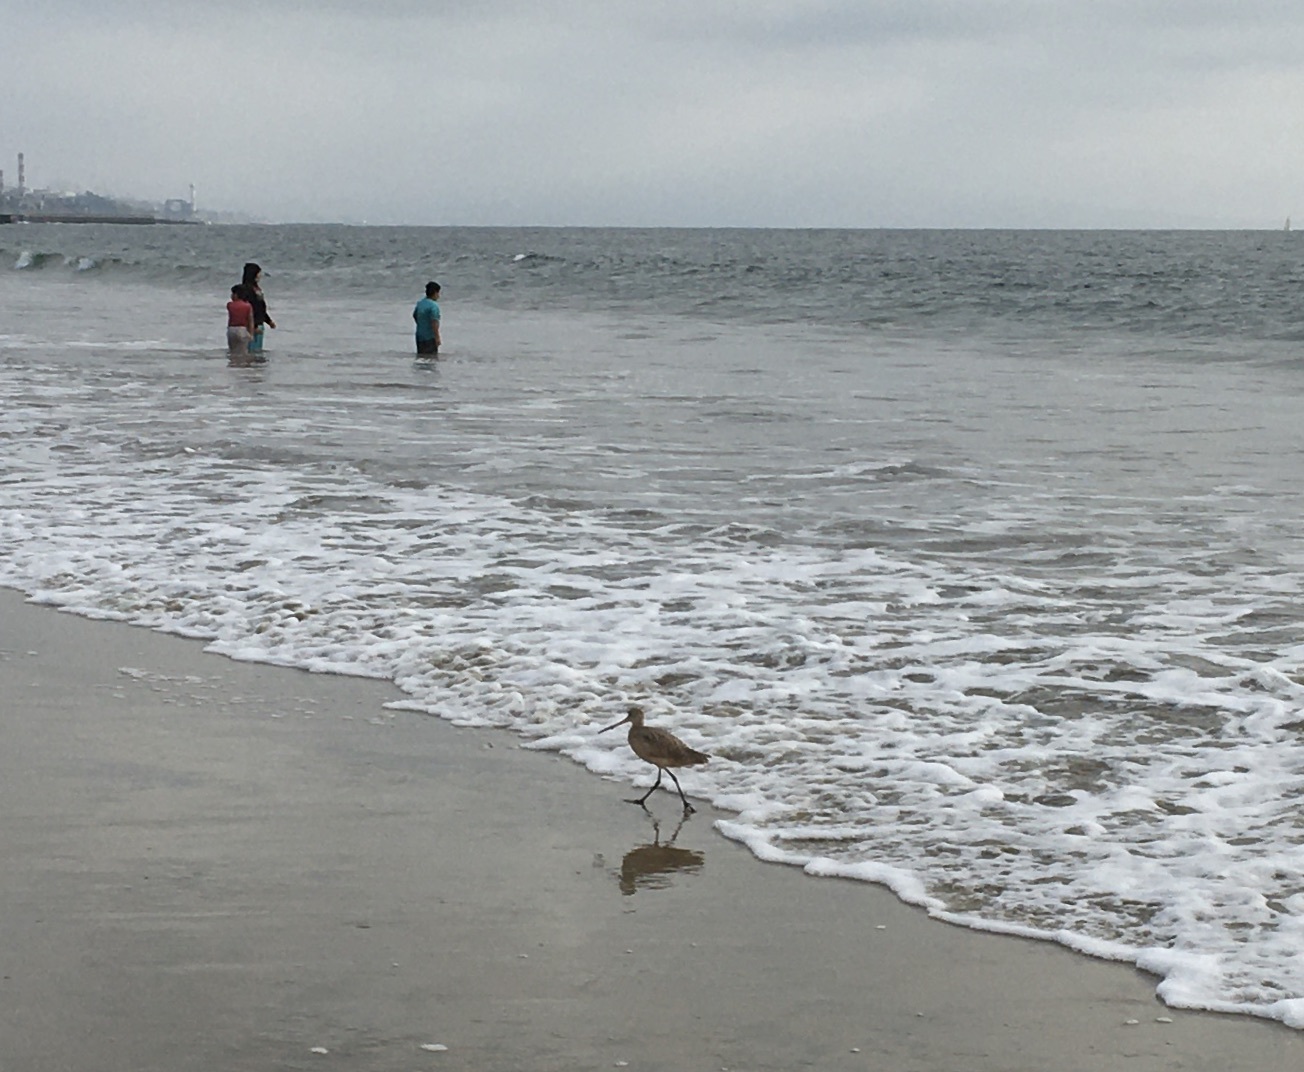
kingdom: Animalia
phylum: Chordata
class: Aves
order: Charadriiformes
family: Scolopacidae
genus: Limosa
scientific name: Limosa fedoa
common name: Marbled godwit
